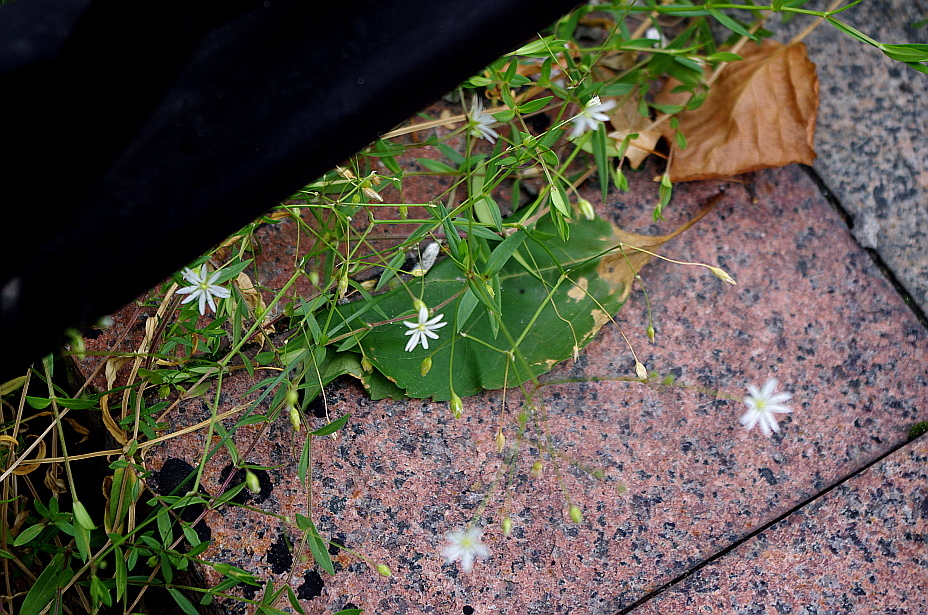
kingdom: Plantae
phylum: Tracheophyta
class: Magnoliopsida
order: Caryophyllales
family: Caryophyllaceae
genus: Stellaria
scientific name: Stellaria graminea
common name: Grass-like starwort
